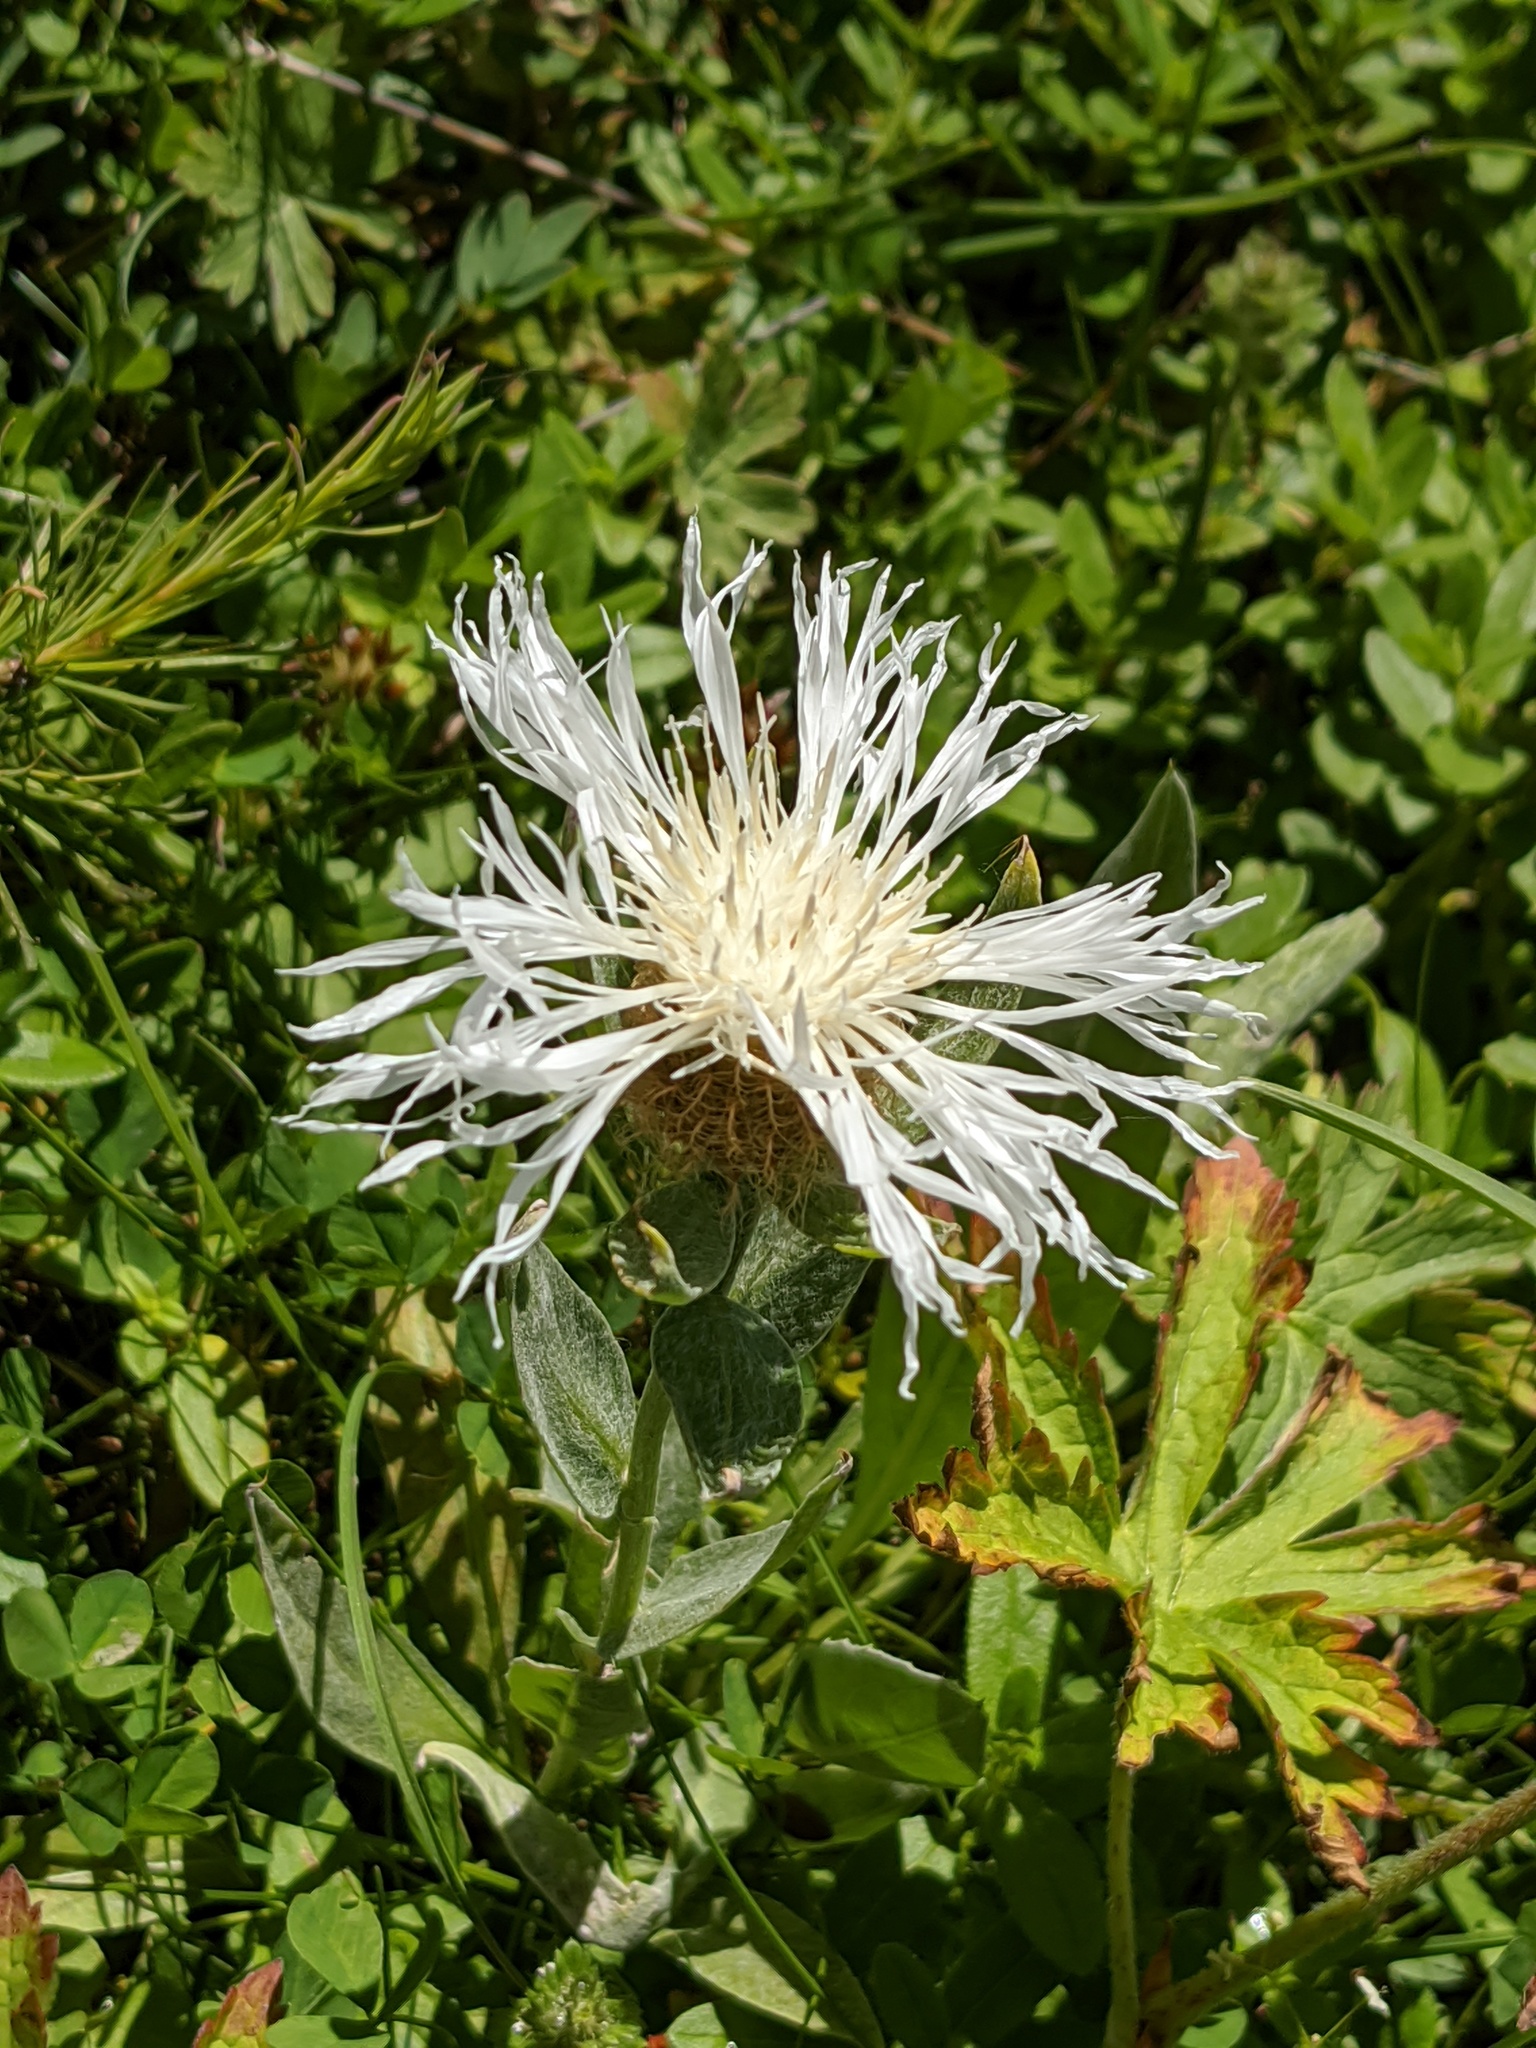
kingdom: Plantae
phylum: Tracheophyta
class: Magnoliopsida
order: Asterales
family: Asteraceae
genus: Centaurea
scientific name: Centaurea uniflora
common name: Singleflower knapweed
